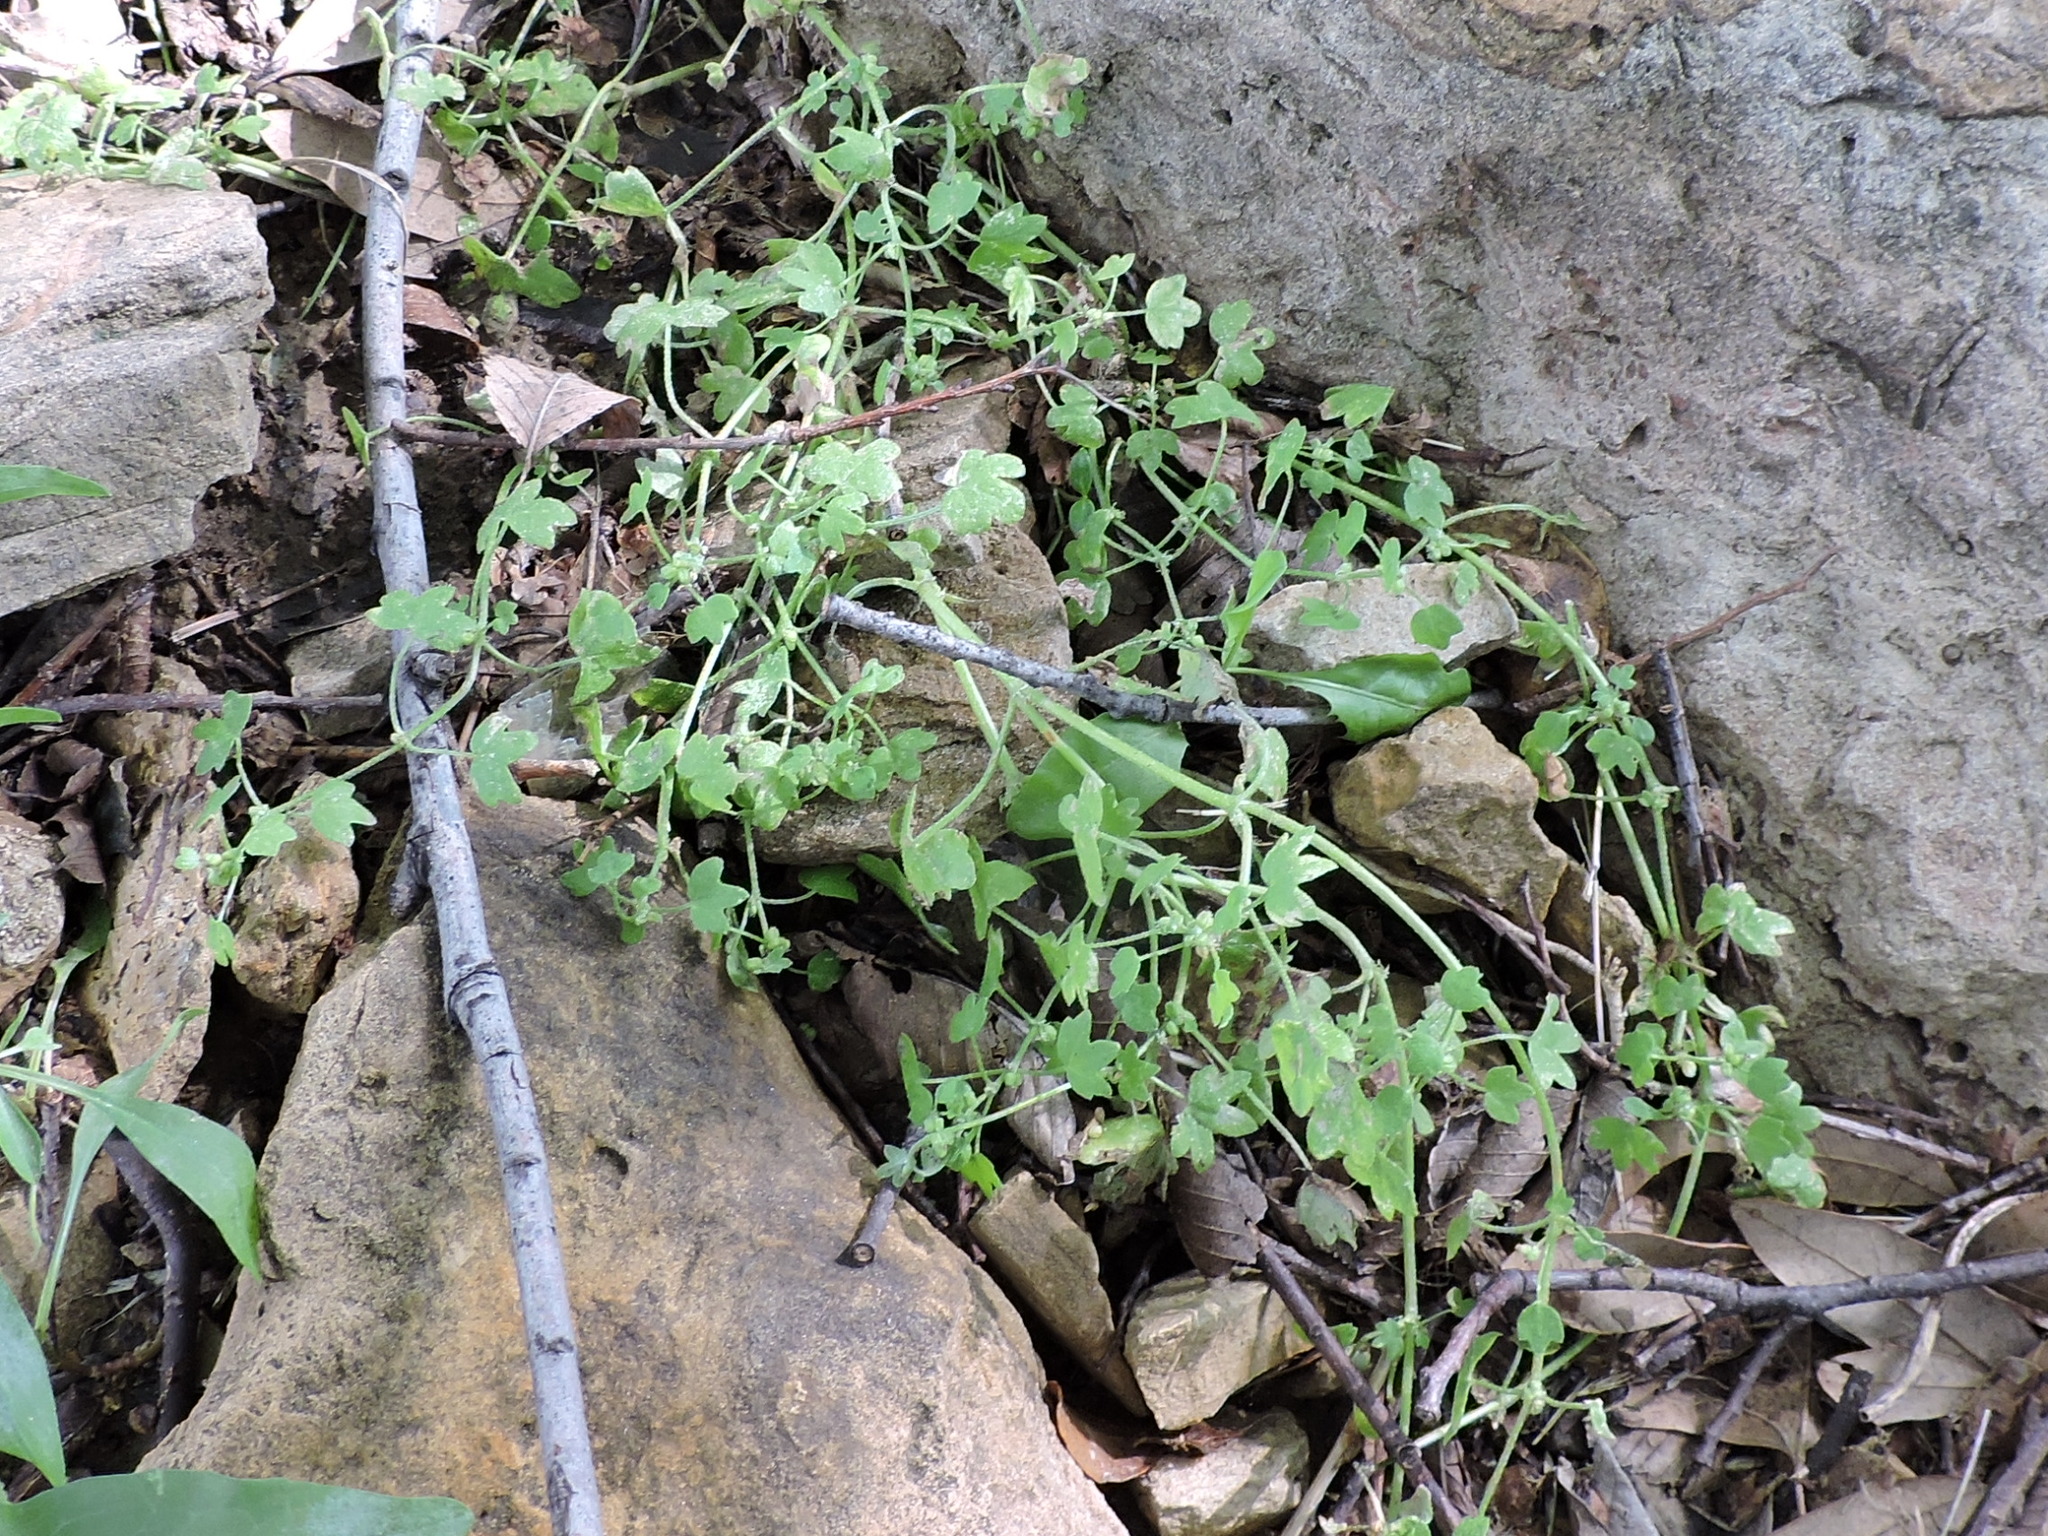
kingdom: Plantae
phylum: Tracheophyta
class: Magnoliopsida
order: Apiales
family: Apiaceae
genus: Bowlesia
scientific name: Bowlesia incana
